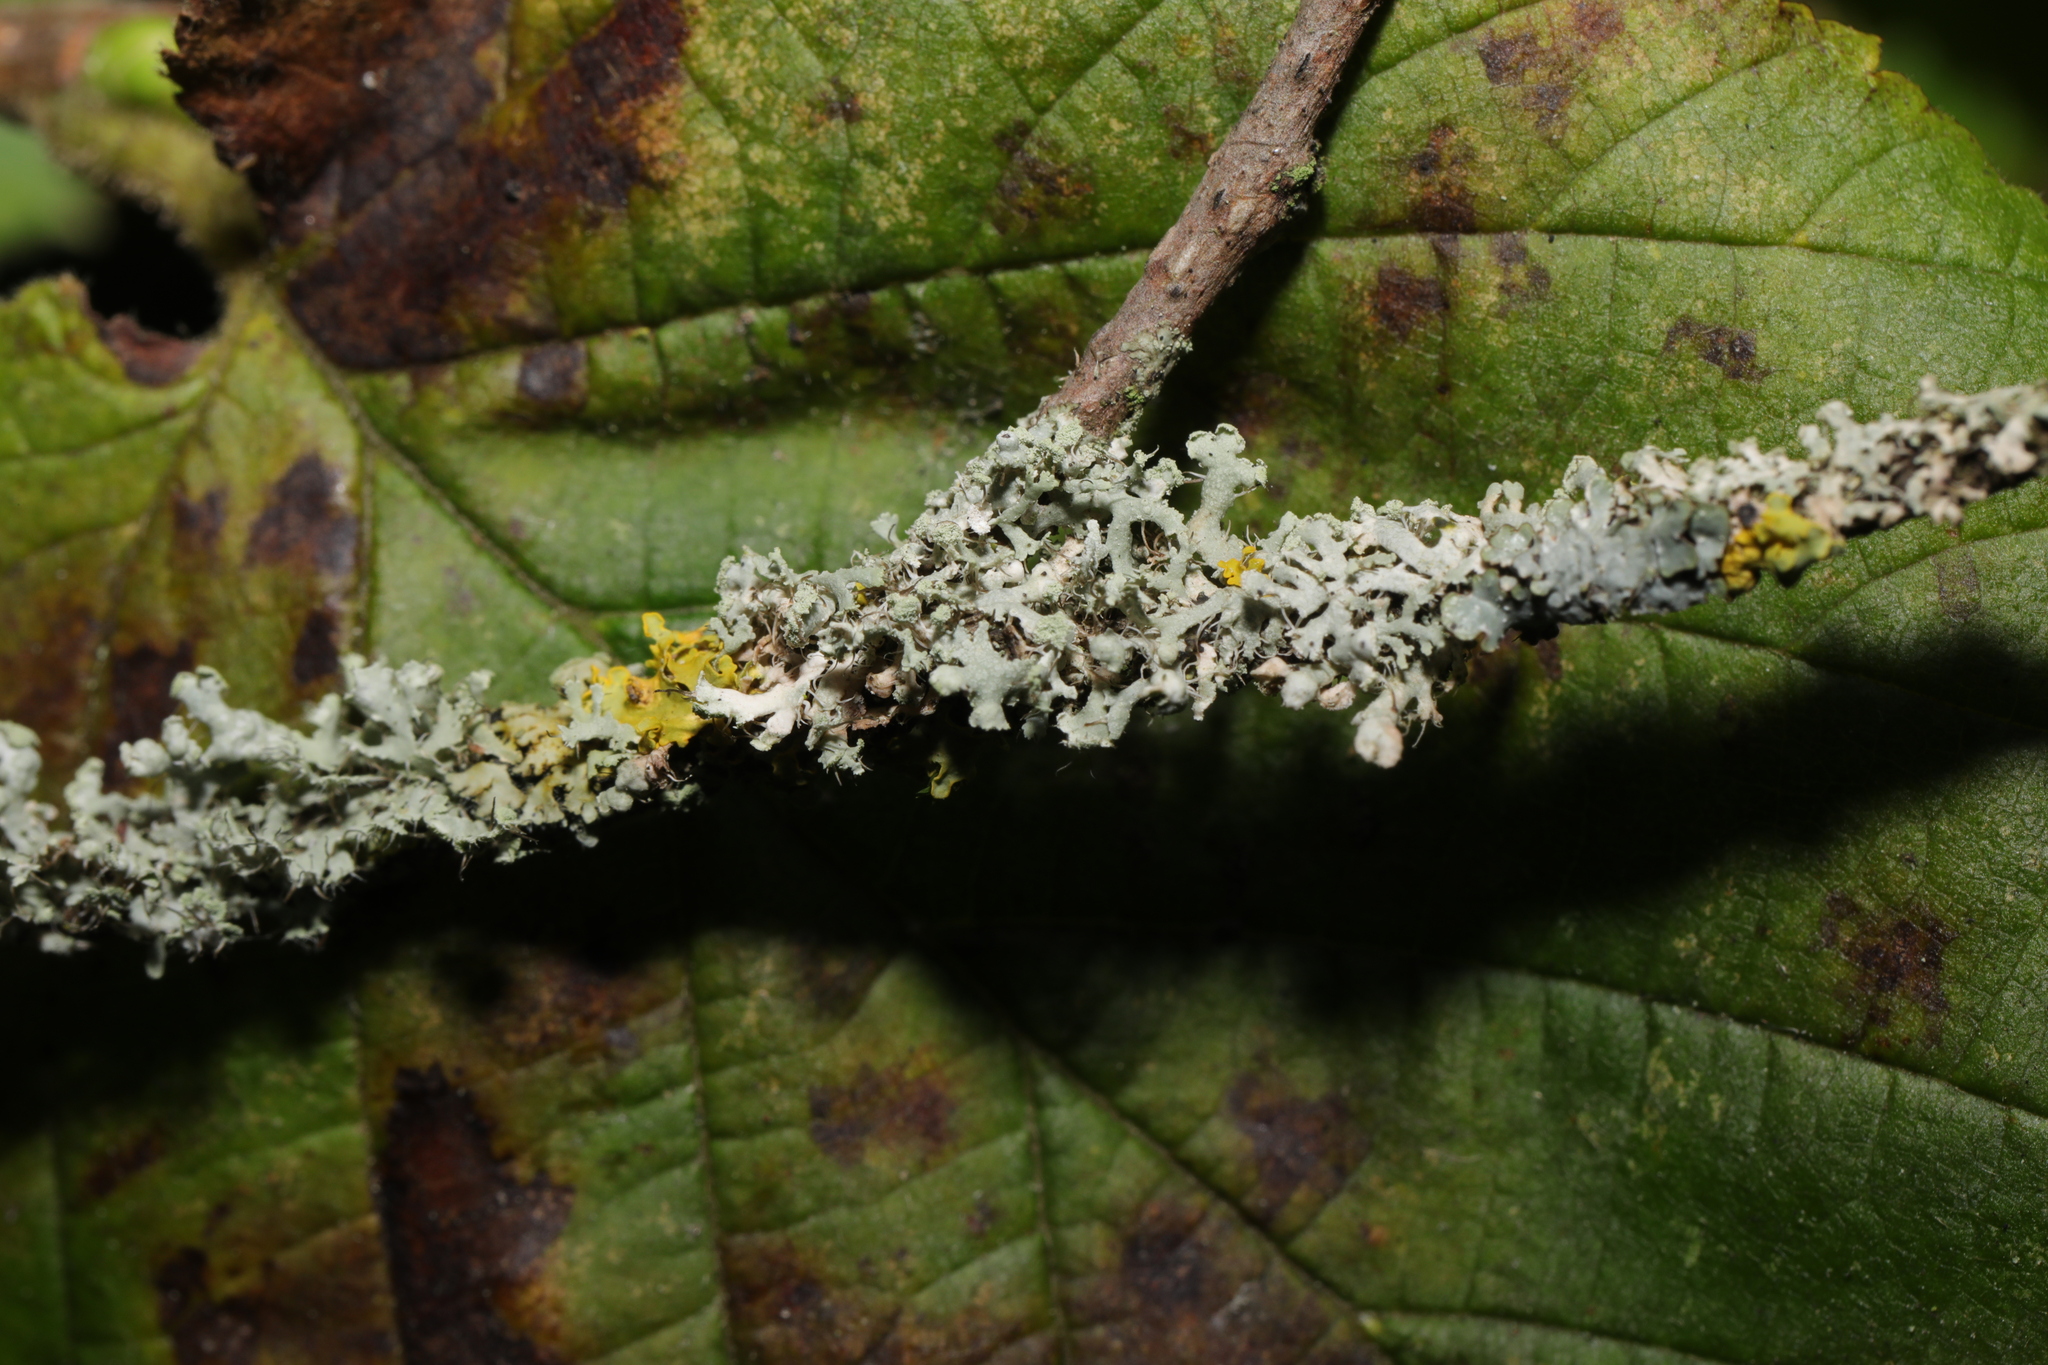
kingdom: Fungi
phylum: Ascomycota
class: Lecanoromycetes
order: Caliciales
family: Physciaceae
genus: Physcia
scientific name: Physcia adscendens
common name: Hooded rosette lichen
